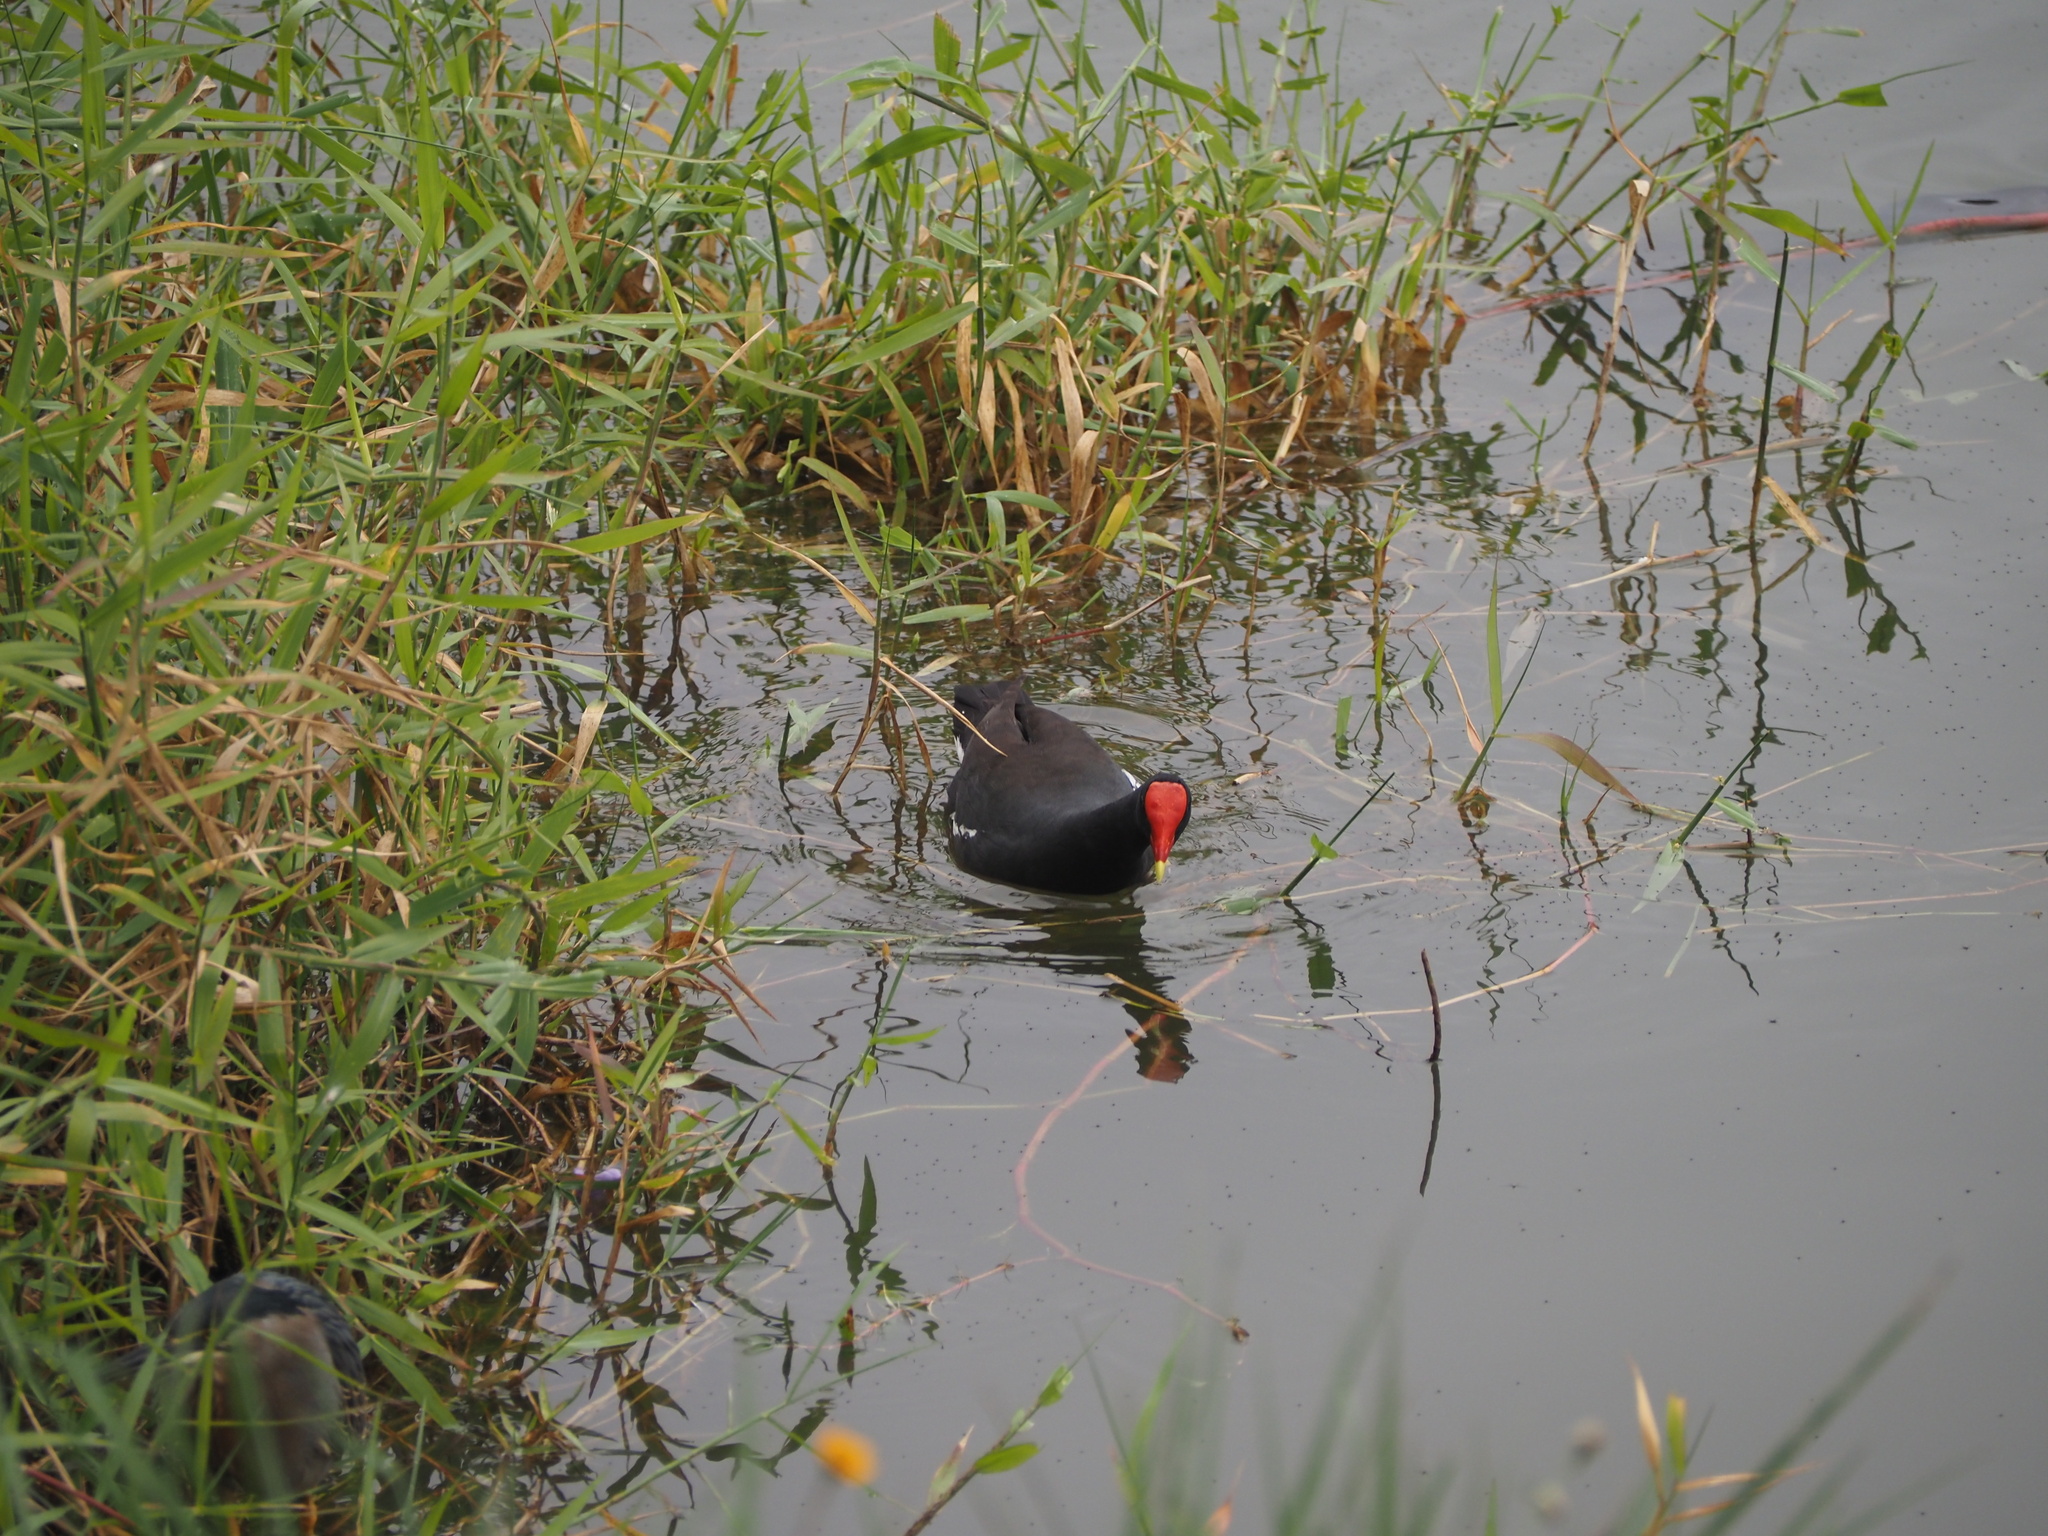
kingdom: Animalia
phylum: Chordata
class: Aves
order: Gruiformes
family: Rallidae
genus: Gallinula
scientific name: Gallinula chloropus
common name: Common moorhen
